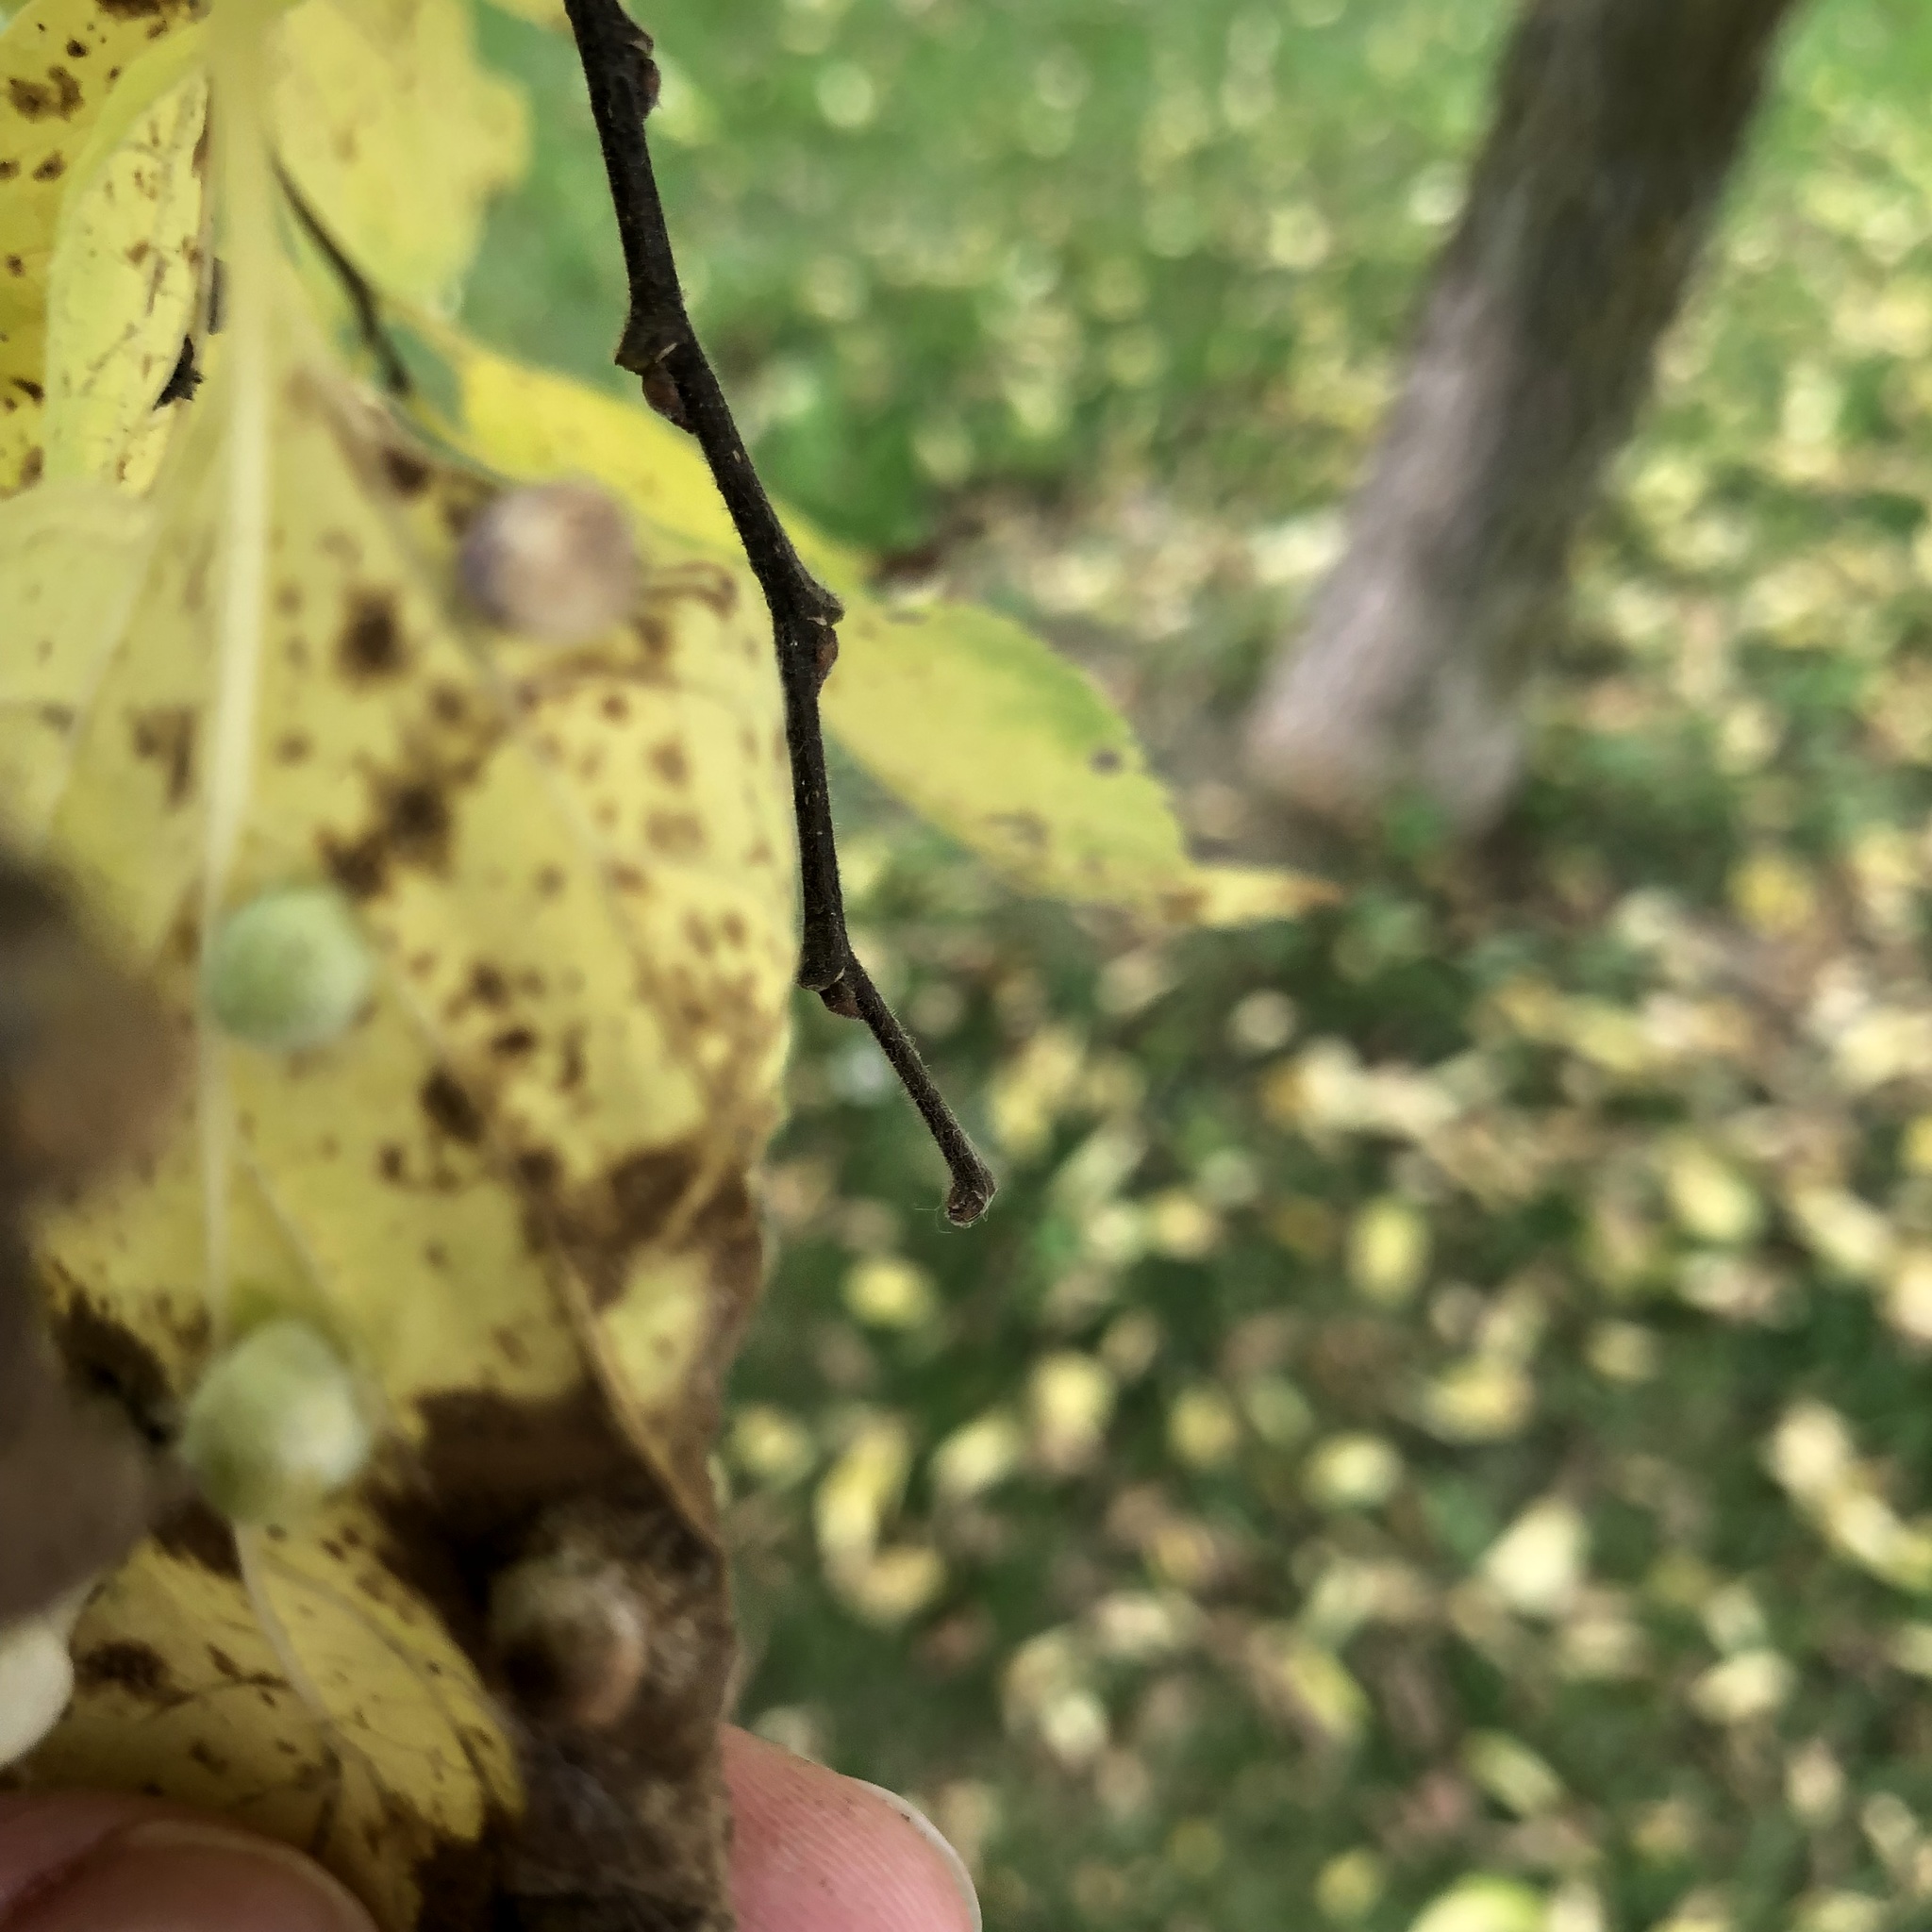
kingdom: Animalia
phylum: Arthropoda
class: Insecta
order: Hemiptera
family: Aphalaridae
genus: Pachypsylla
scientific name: Pachypsylla celtidismamma
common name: Hackberry nipplegall psyllid
